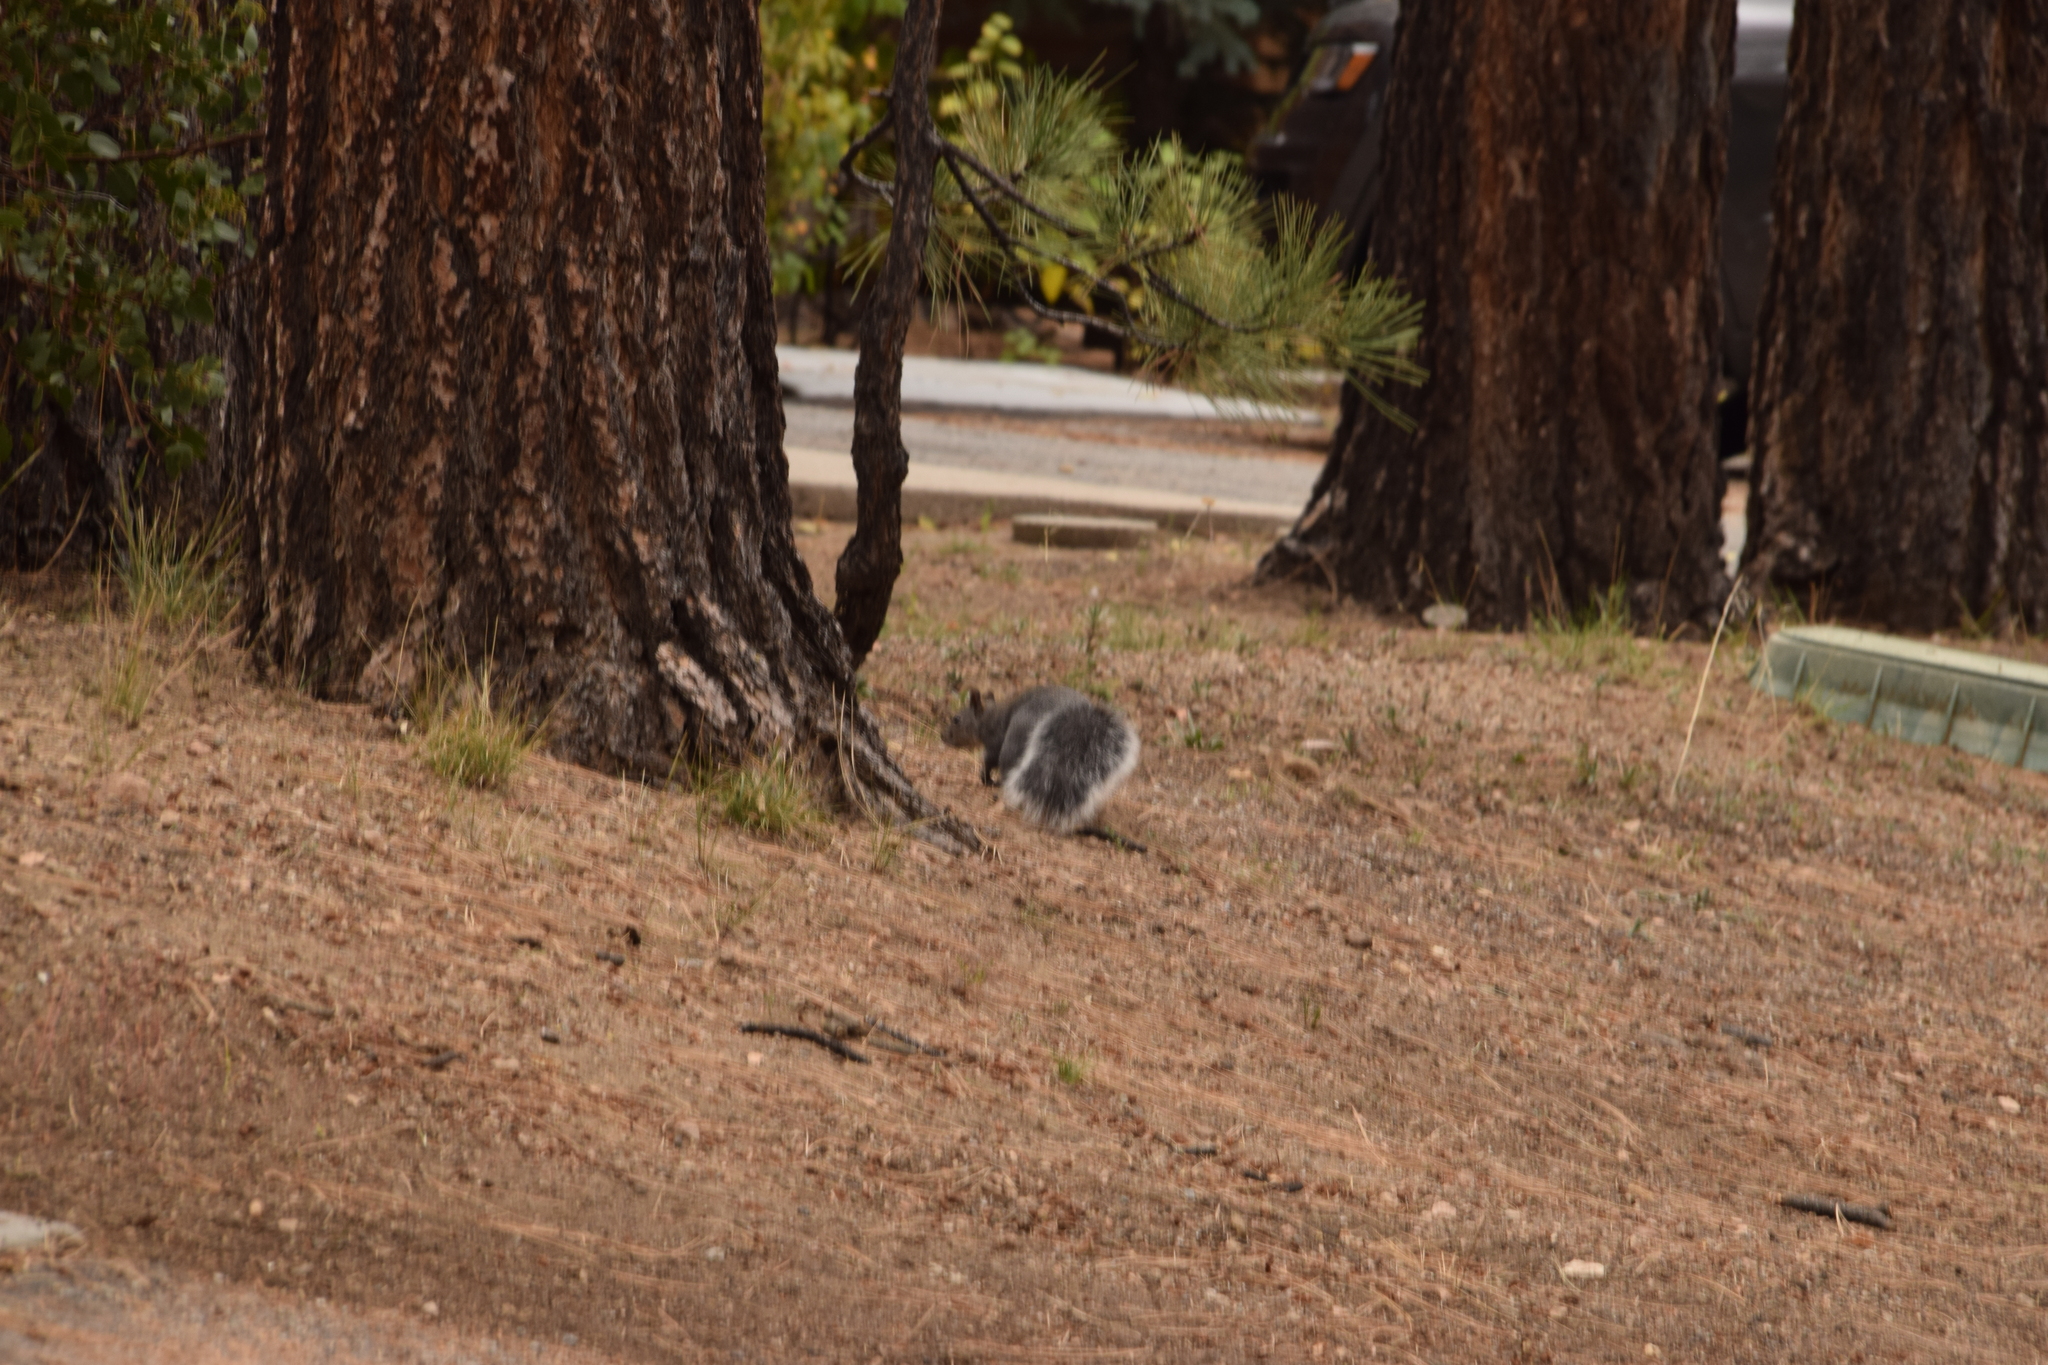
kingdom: Animalia
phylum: Chordata
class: Mammalia
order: Rodentia
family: Sciuridae
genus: Sciurus
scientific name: Sciurus griseus
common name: Western gray squirrel
